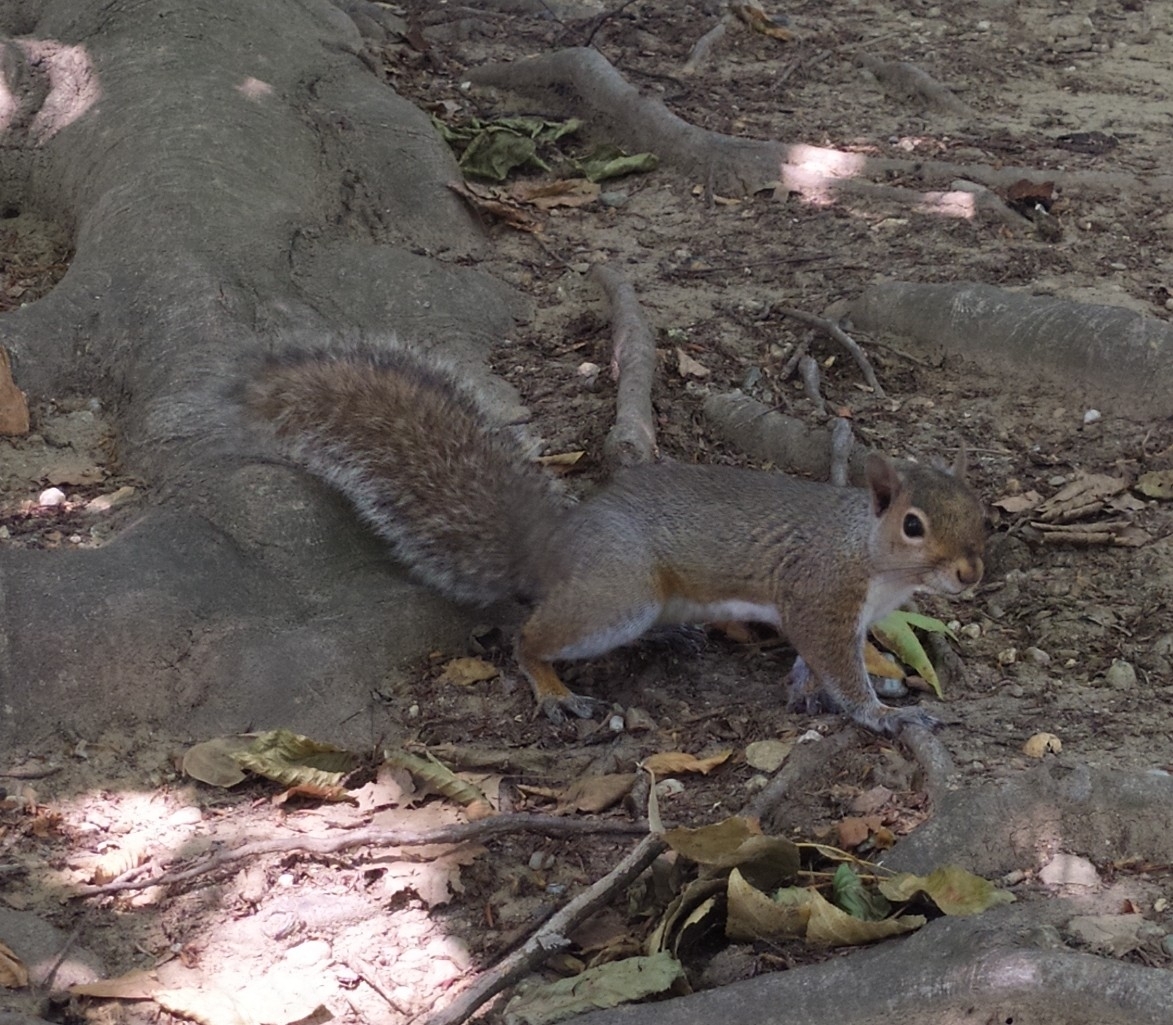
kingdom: Animalia
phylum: Chordata
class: Mammalia
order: Rodentia
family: Sciuridae
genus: Sciurus
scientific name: Sciurus carolinensis
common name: Eastern gray squirrel
